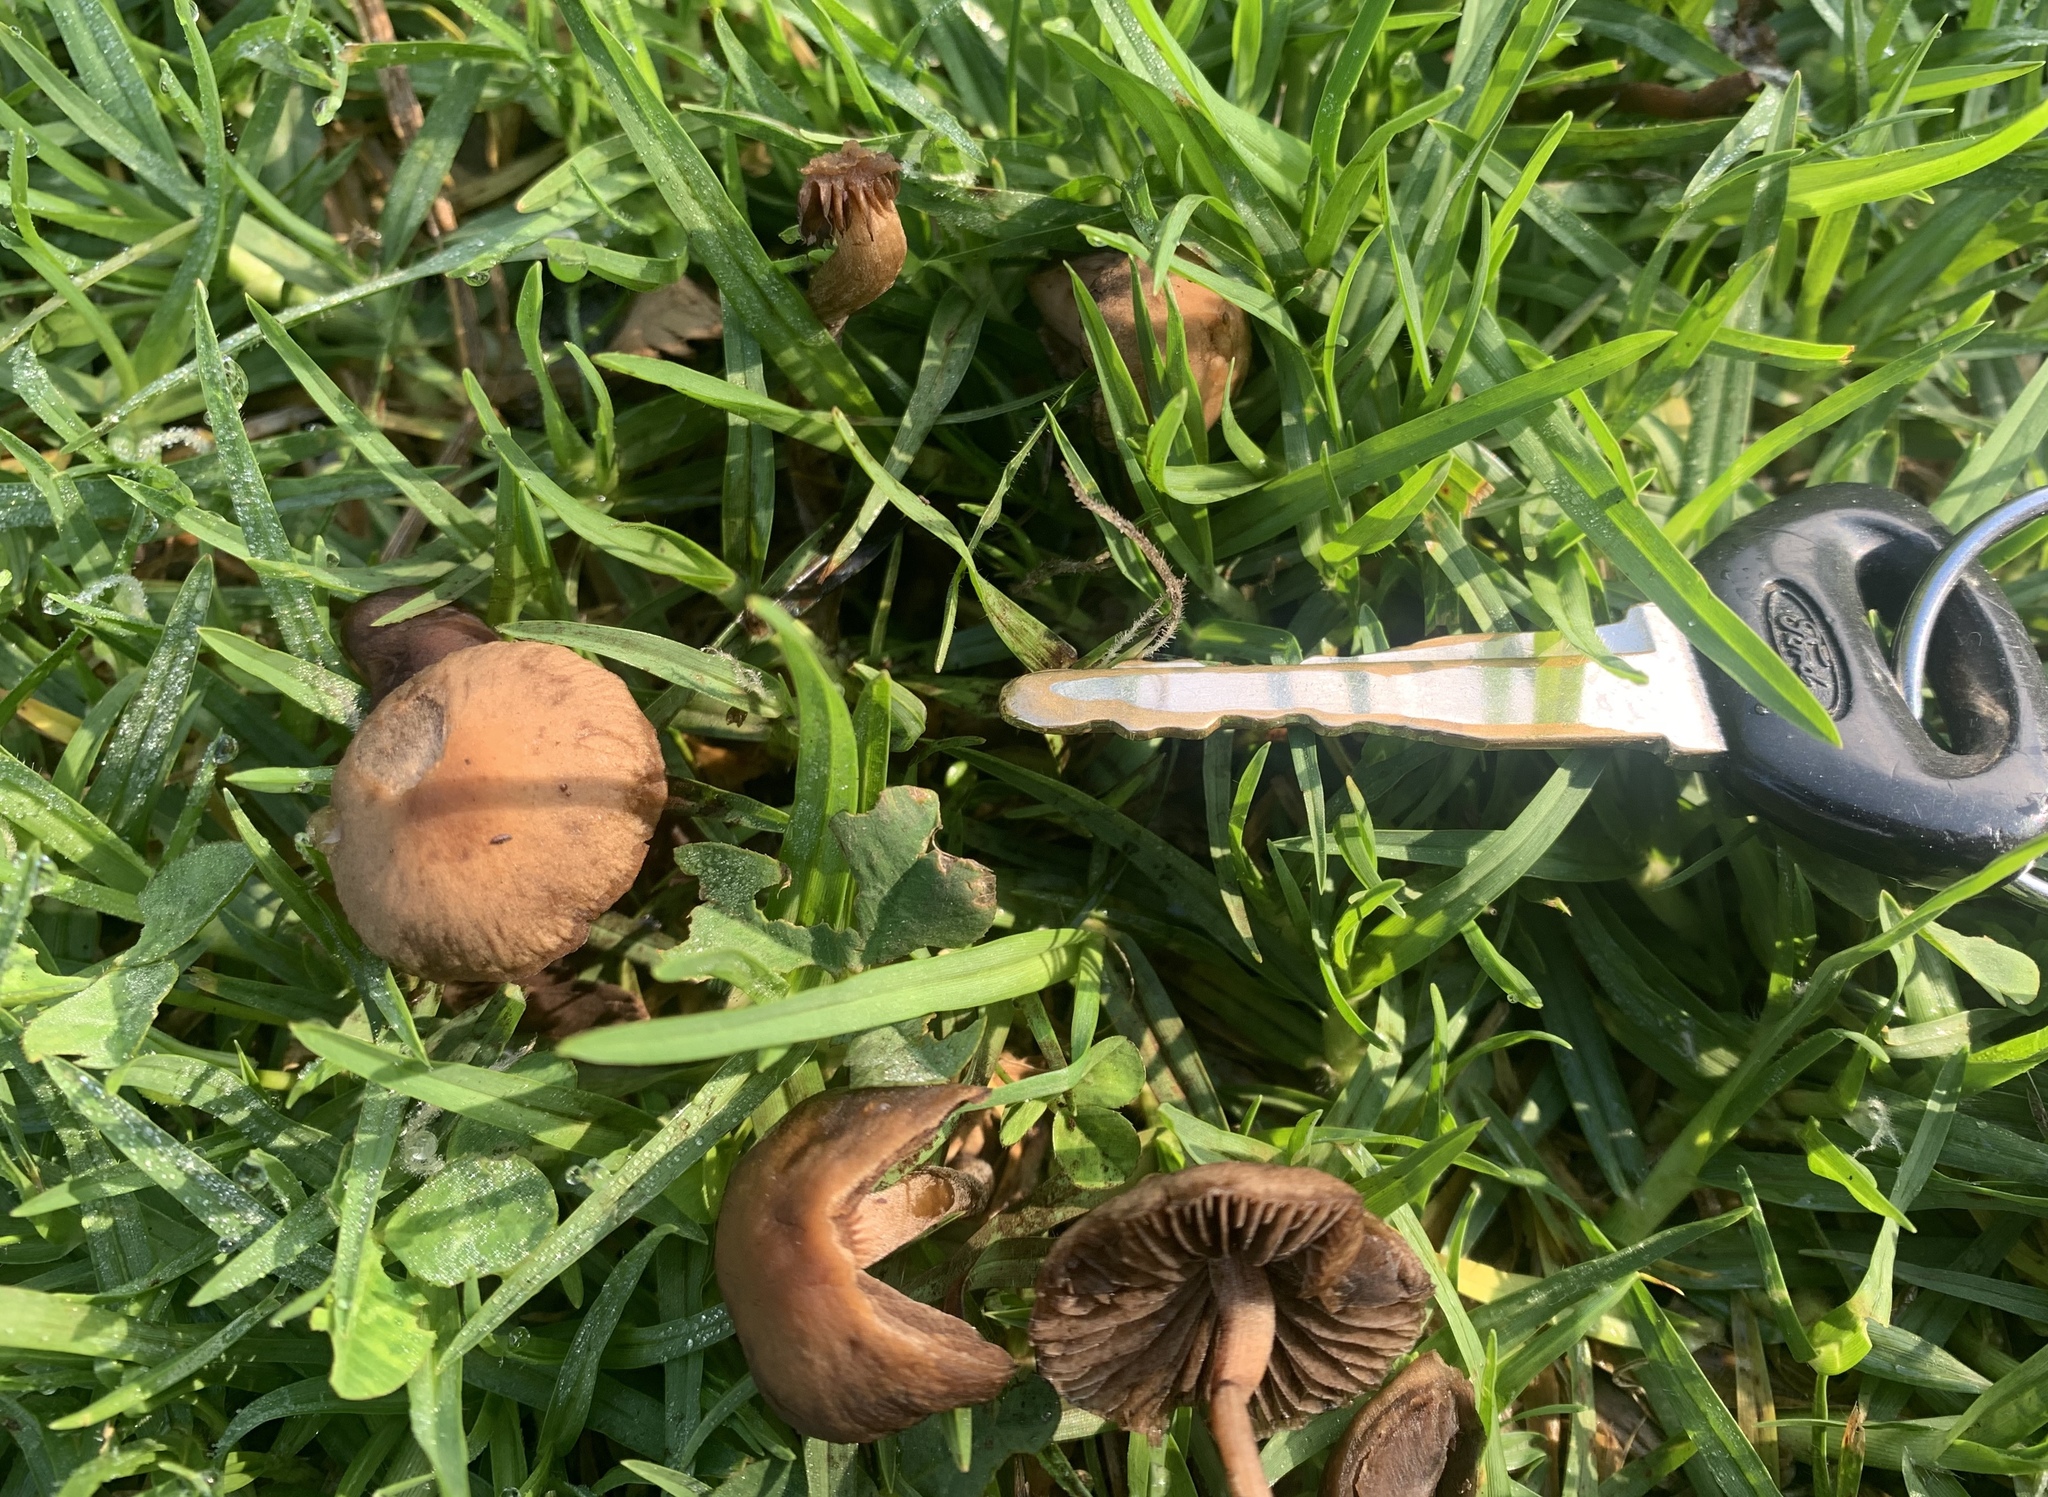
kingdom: Fungi
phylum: Basidiomycota
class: Agaricomycetes
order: Agaricales
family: Bolbitiaceae
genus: Panaeolina
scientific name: Panaeolina foenisecii
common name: Brown hay cap
